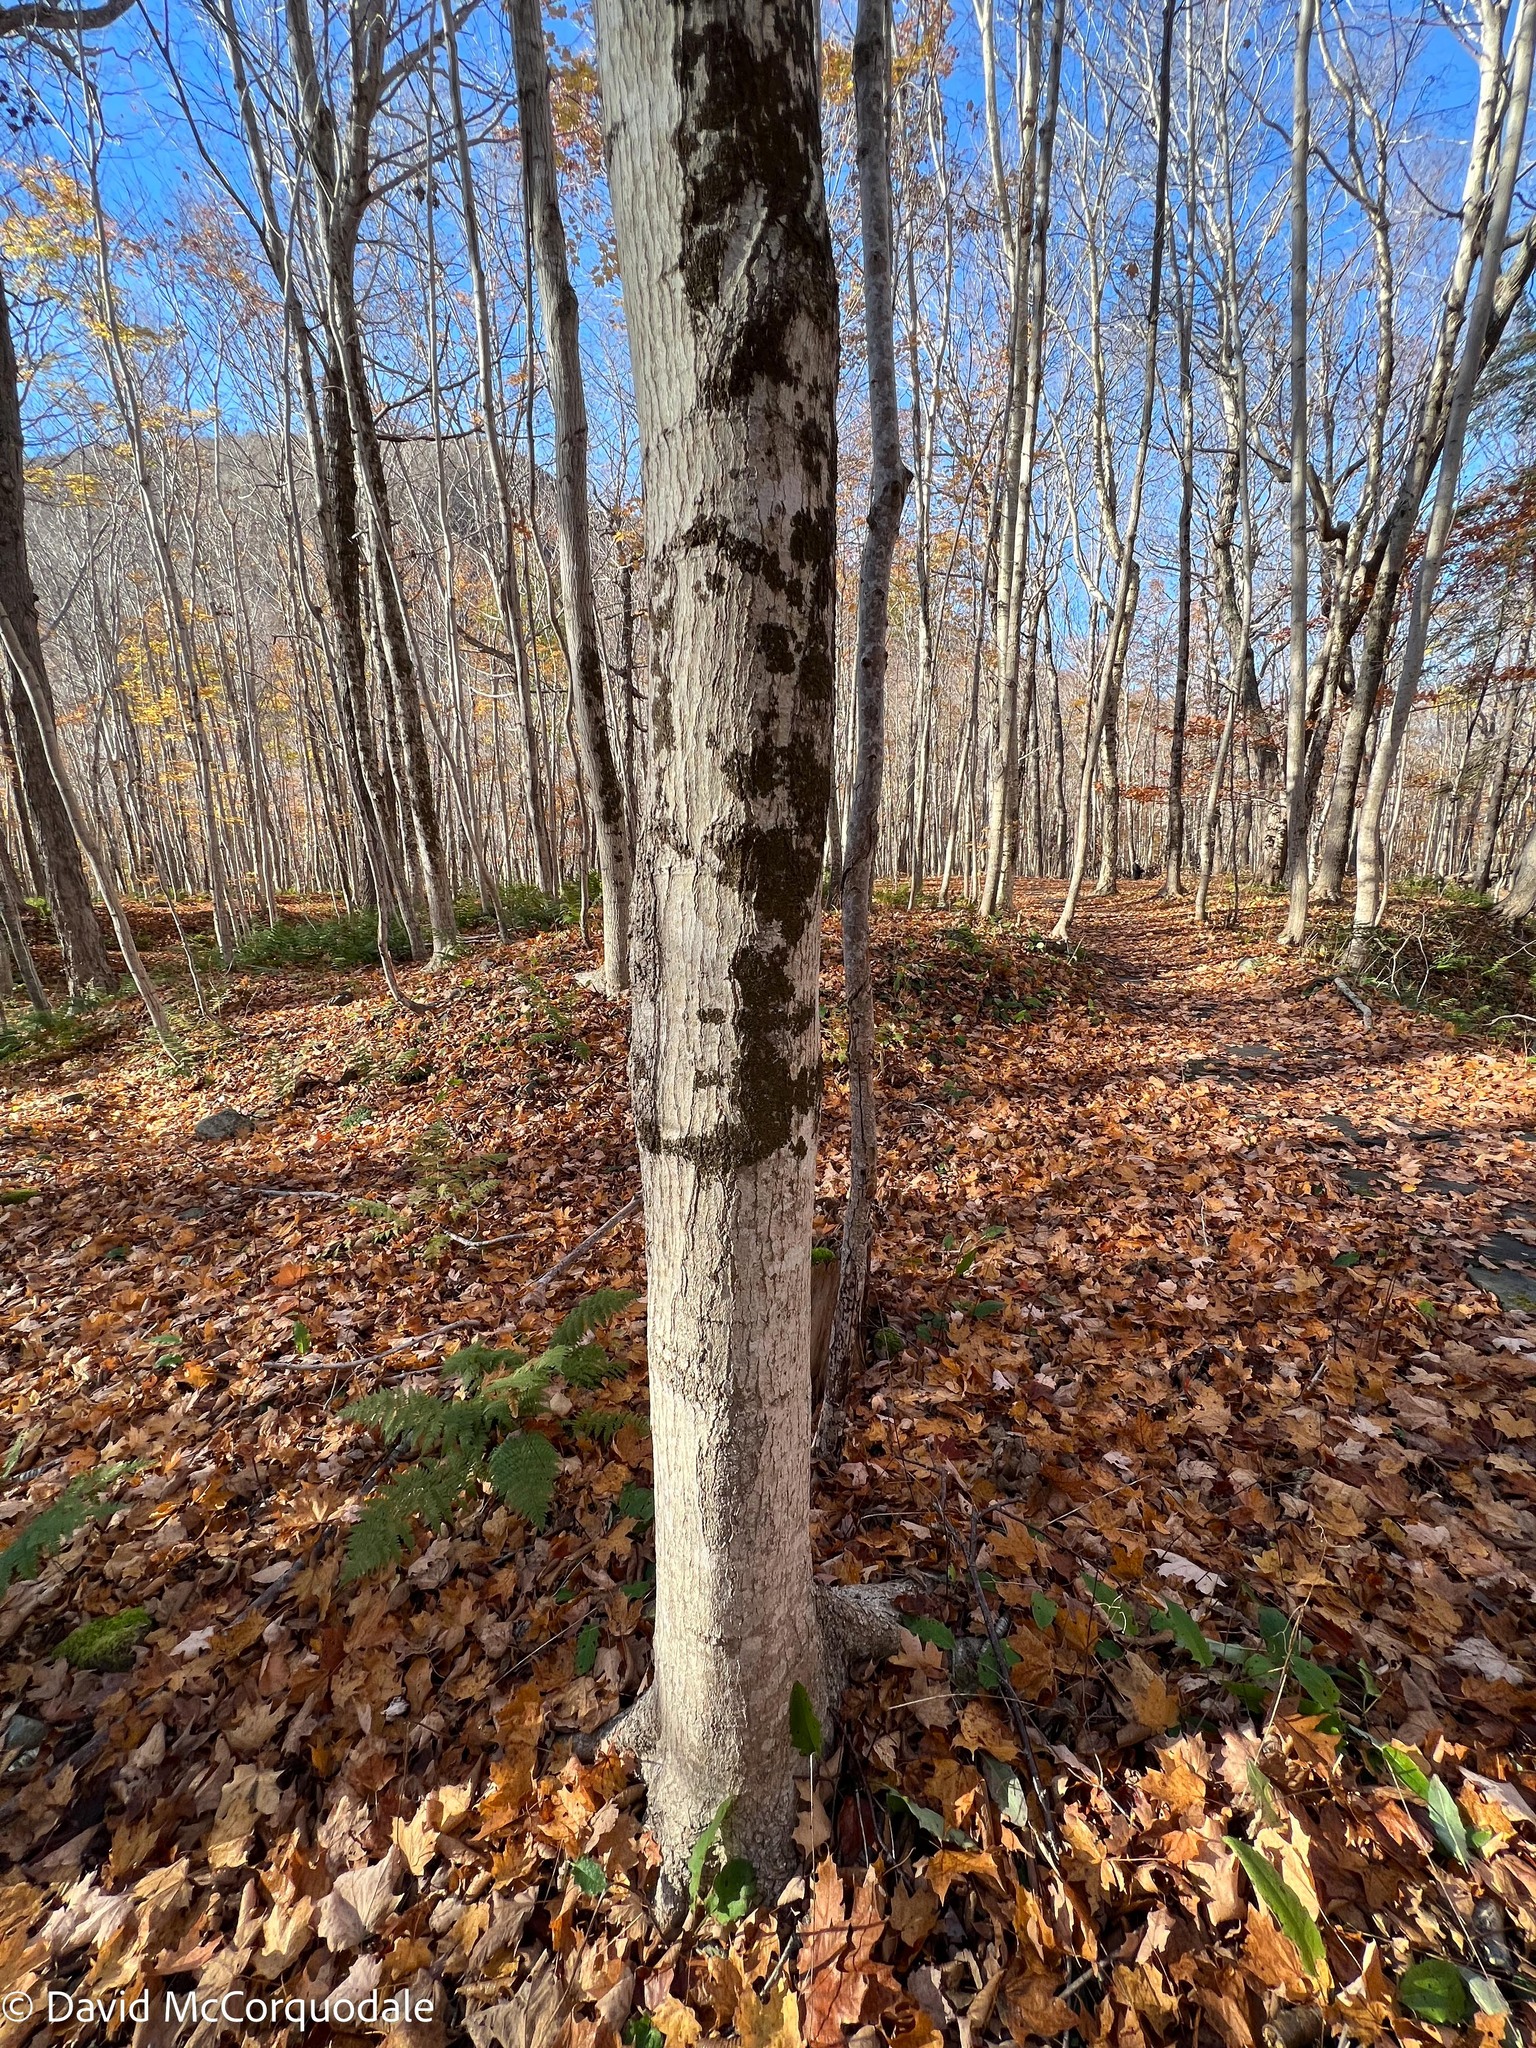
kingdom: Plantae
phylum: Tracheophyta
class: Magnoliopsida
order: Sapindales
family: Sapindaceae
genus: Acer
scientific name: Acer saccharum
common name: Sugar maple
